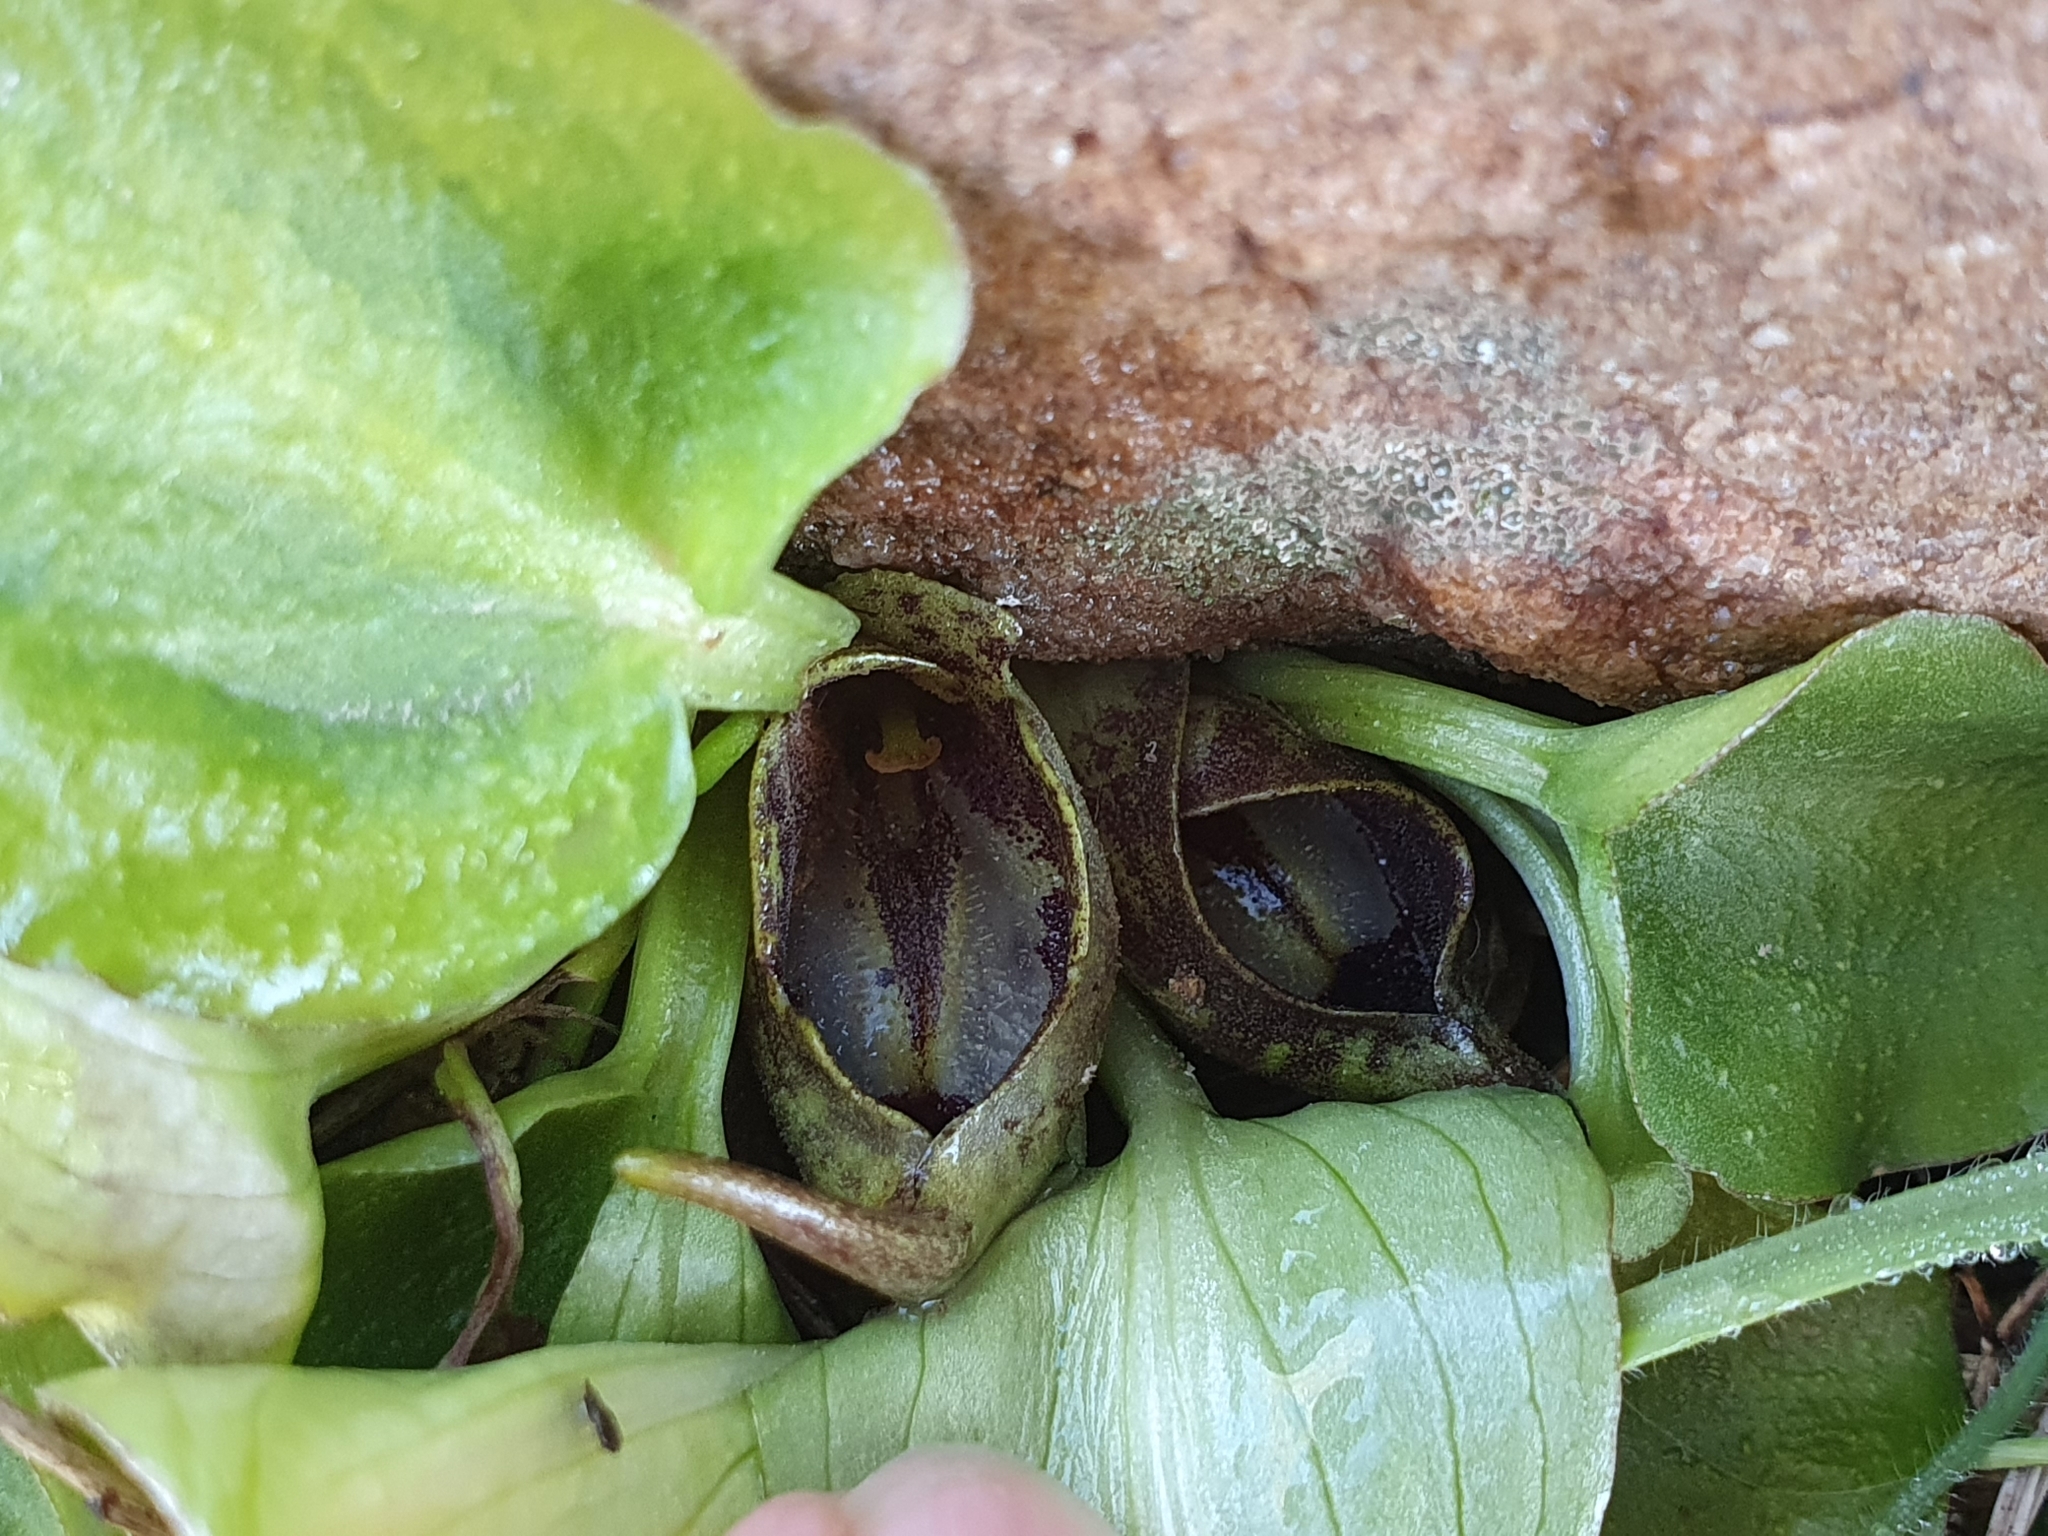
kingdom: Plantae
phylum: Tracheophyta
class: Liliopsida
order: Alismatales
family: Araceae
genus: Ambrosina
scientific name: Ambrosina bassii
